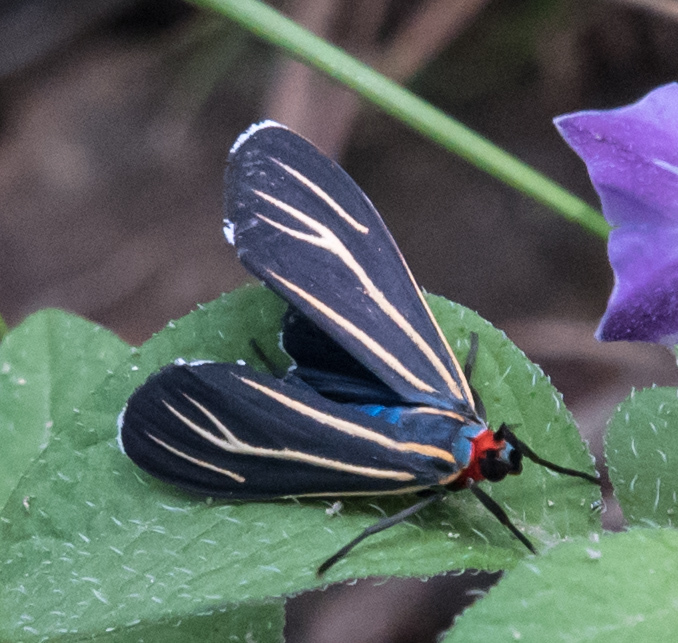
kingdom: Animalia
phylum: Arthropoda
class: Insecta
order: Lepidoptera
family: Erebidae
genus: Ctenucha
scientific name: Ctenucha venosa
